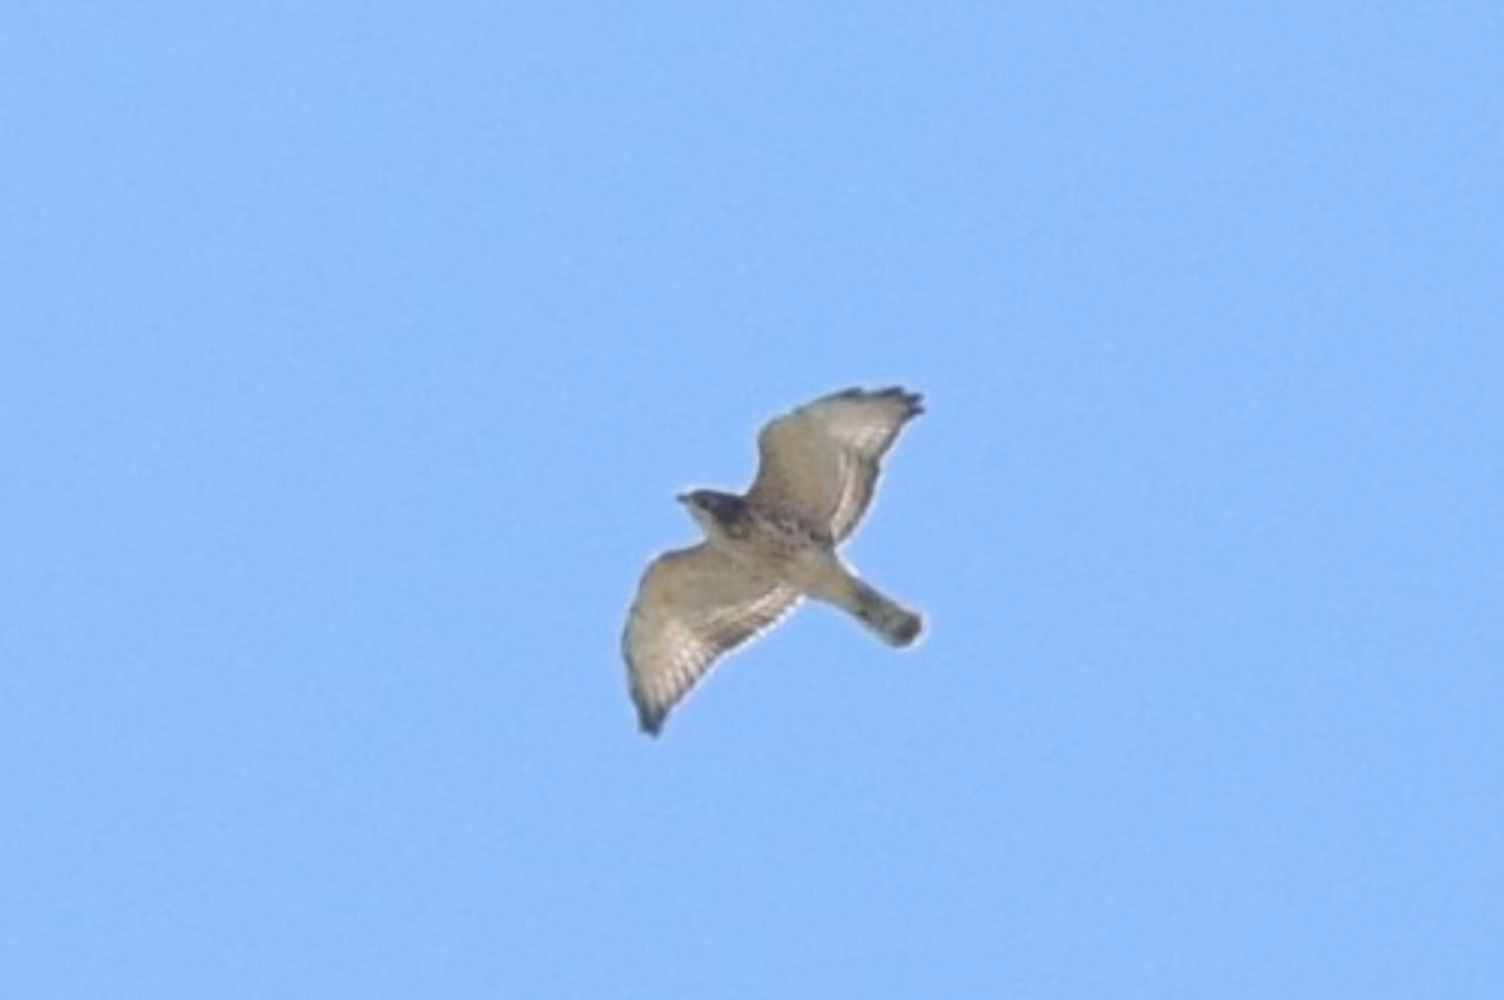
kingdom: Animalia
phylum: Chordata
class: Aves
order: Accipitriformes
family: Accipitridae
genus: Buteo
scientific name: Buteo platypterus
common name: Broad-winged hawk
